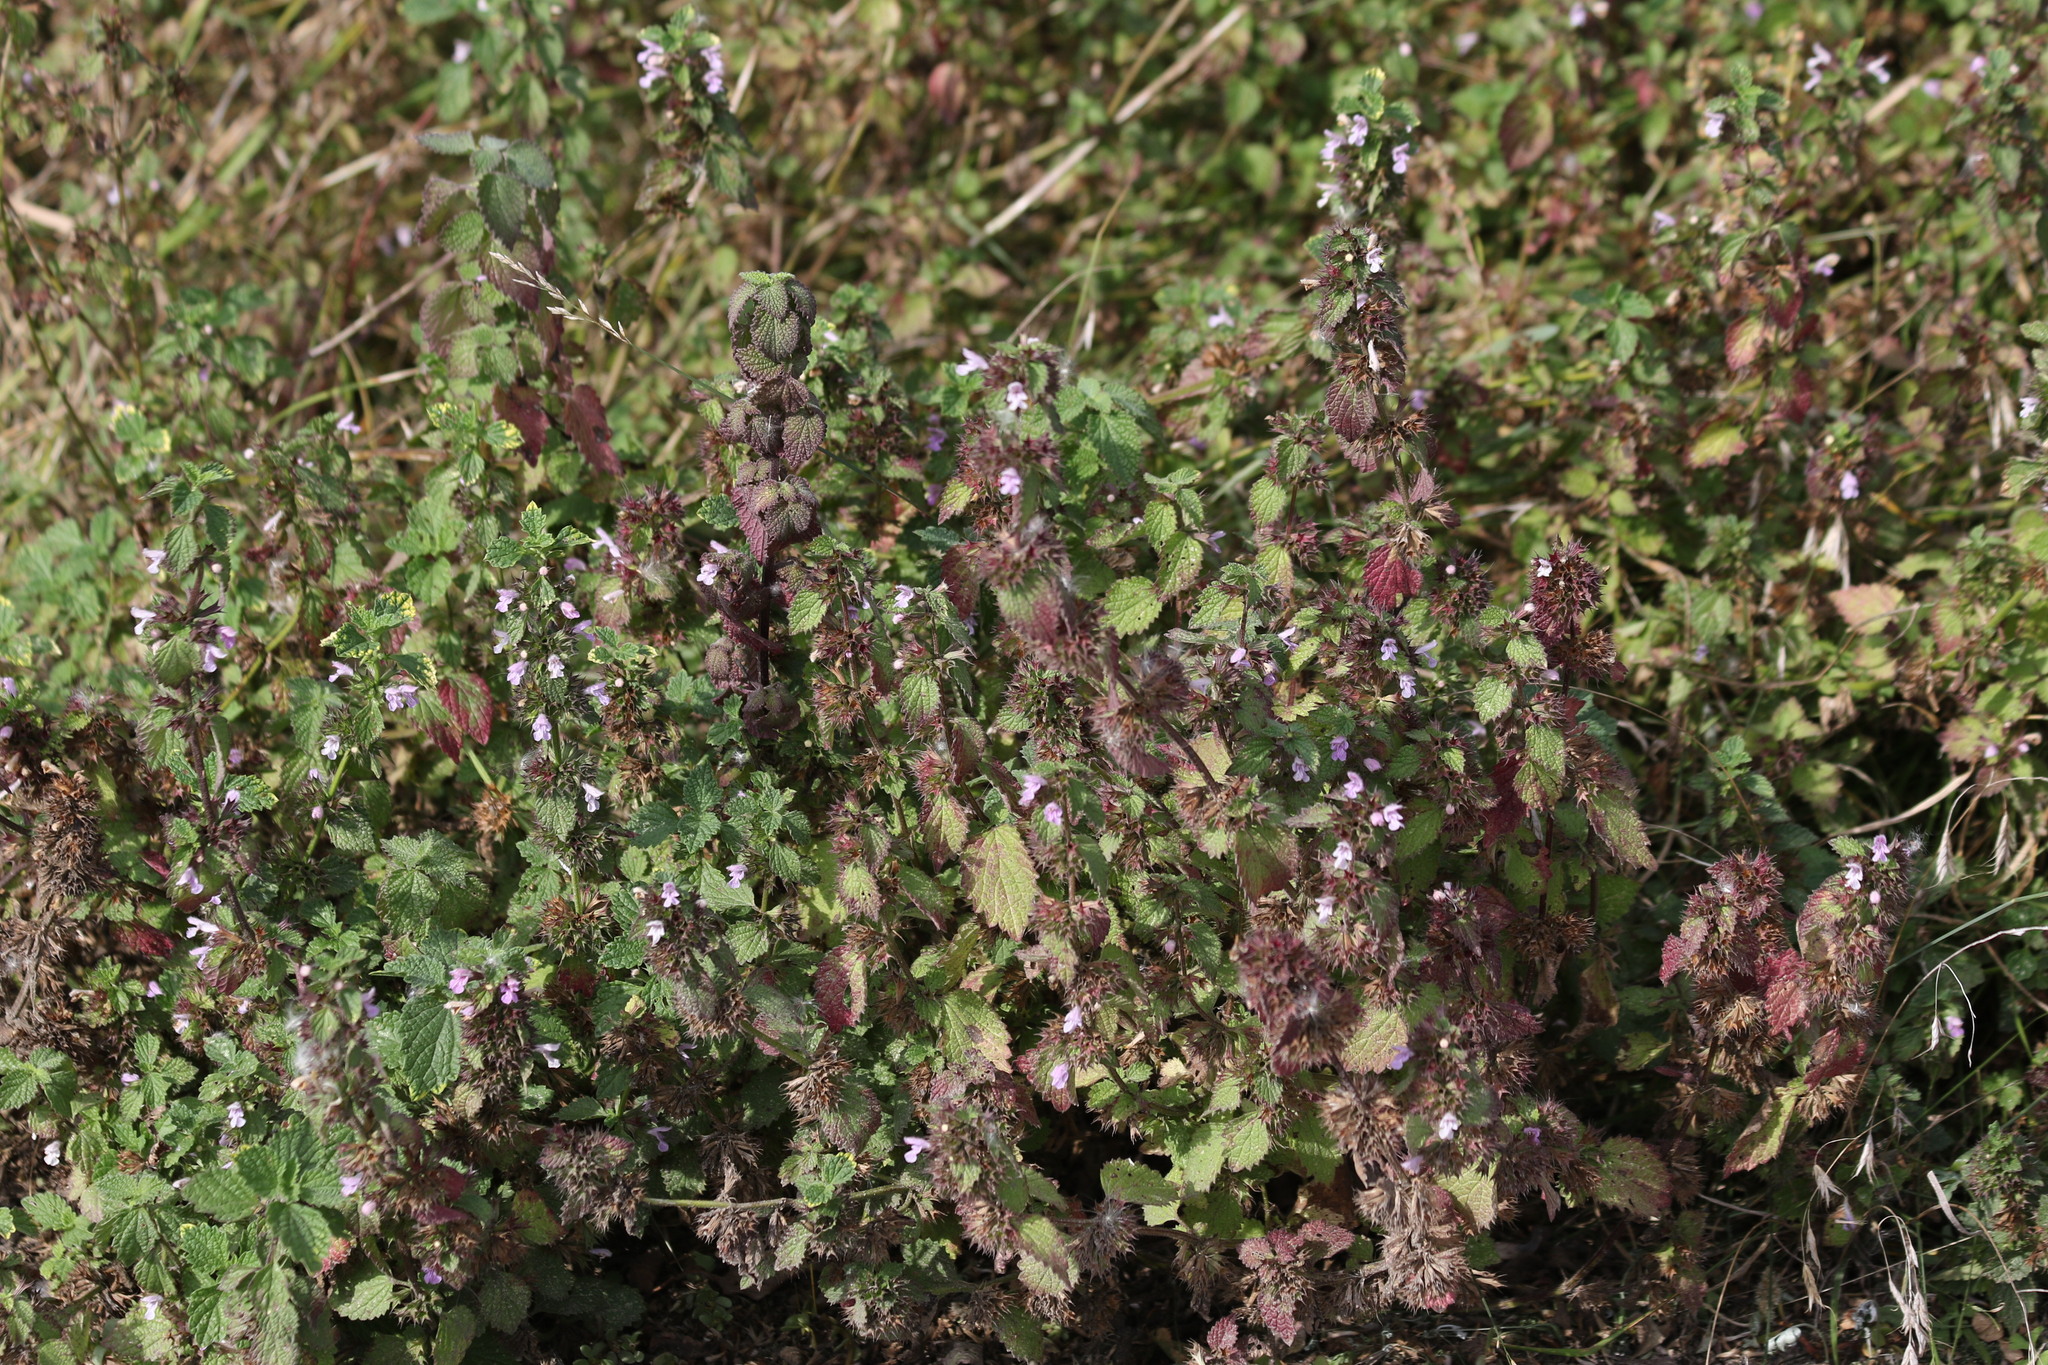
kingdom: Plantae
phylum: Tracheophyta
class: Magnoliopsida
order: Lamiales
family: Lamiaceae
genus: Ballota
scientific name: Ballota nigra
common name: Black horehound
